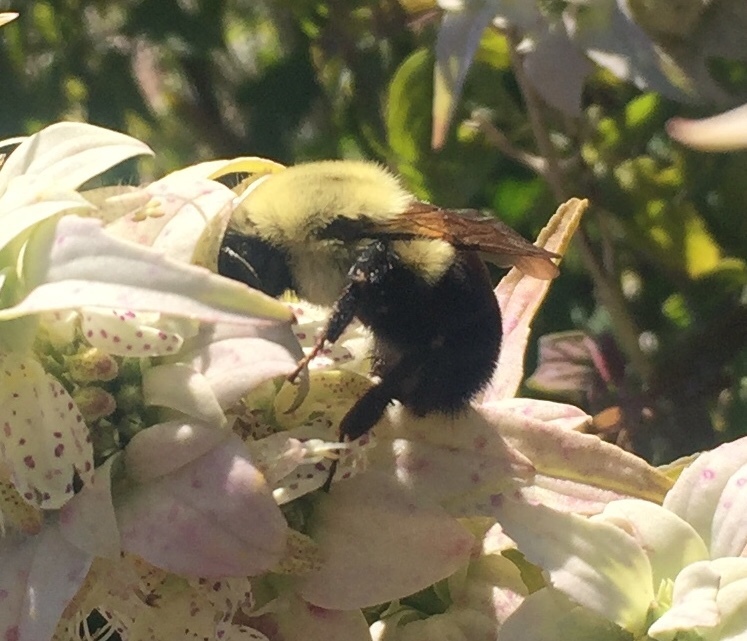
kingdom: Animalia
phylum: Arthropoda
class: Insecta
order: Hymenoptera
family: Apidae
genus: Bombus
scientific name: Bombus impatiens
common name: Common eastern bumble bee
